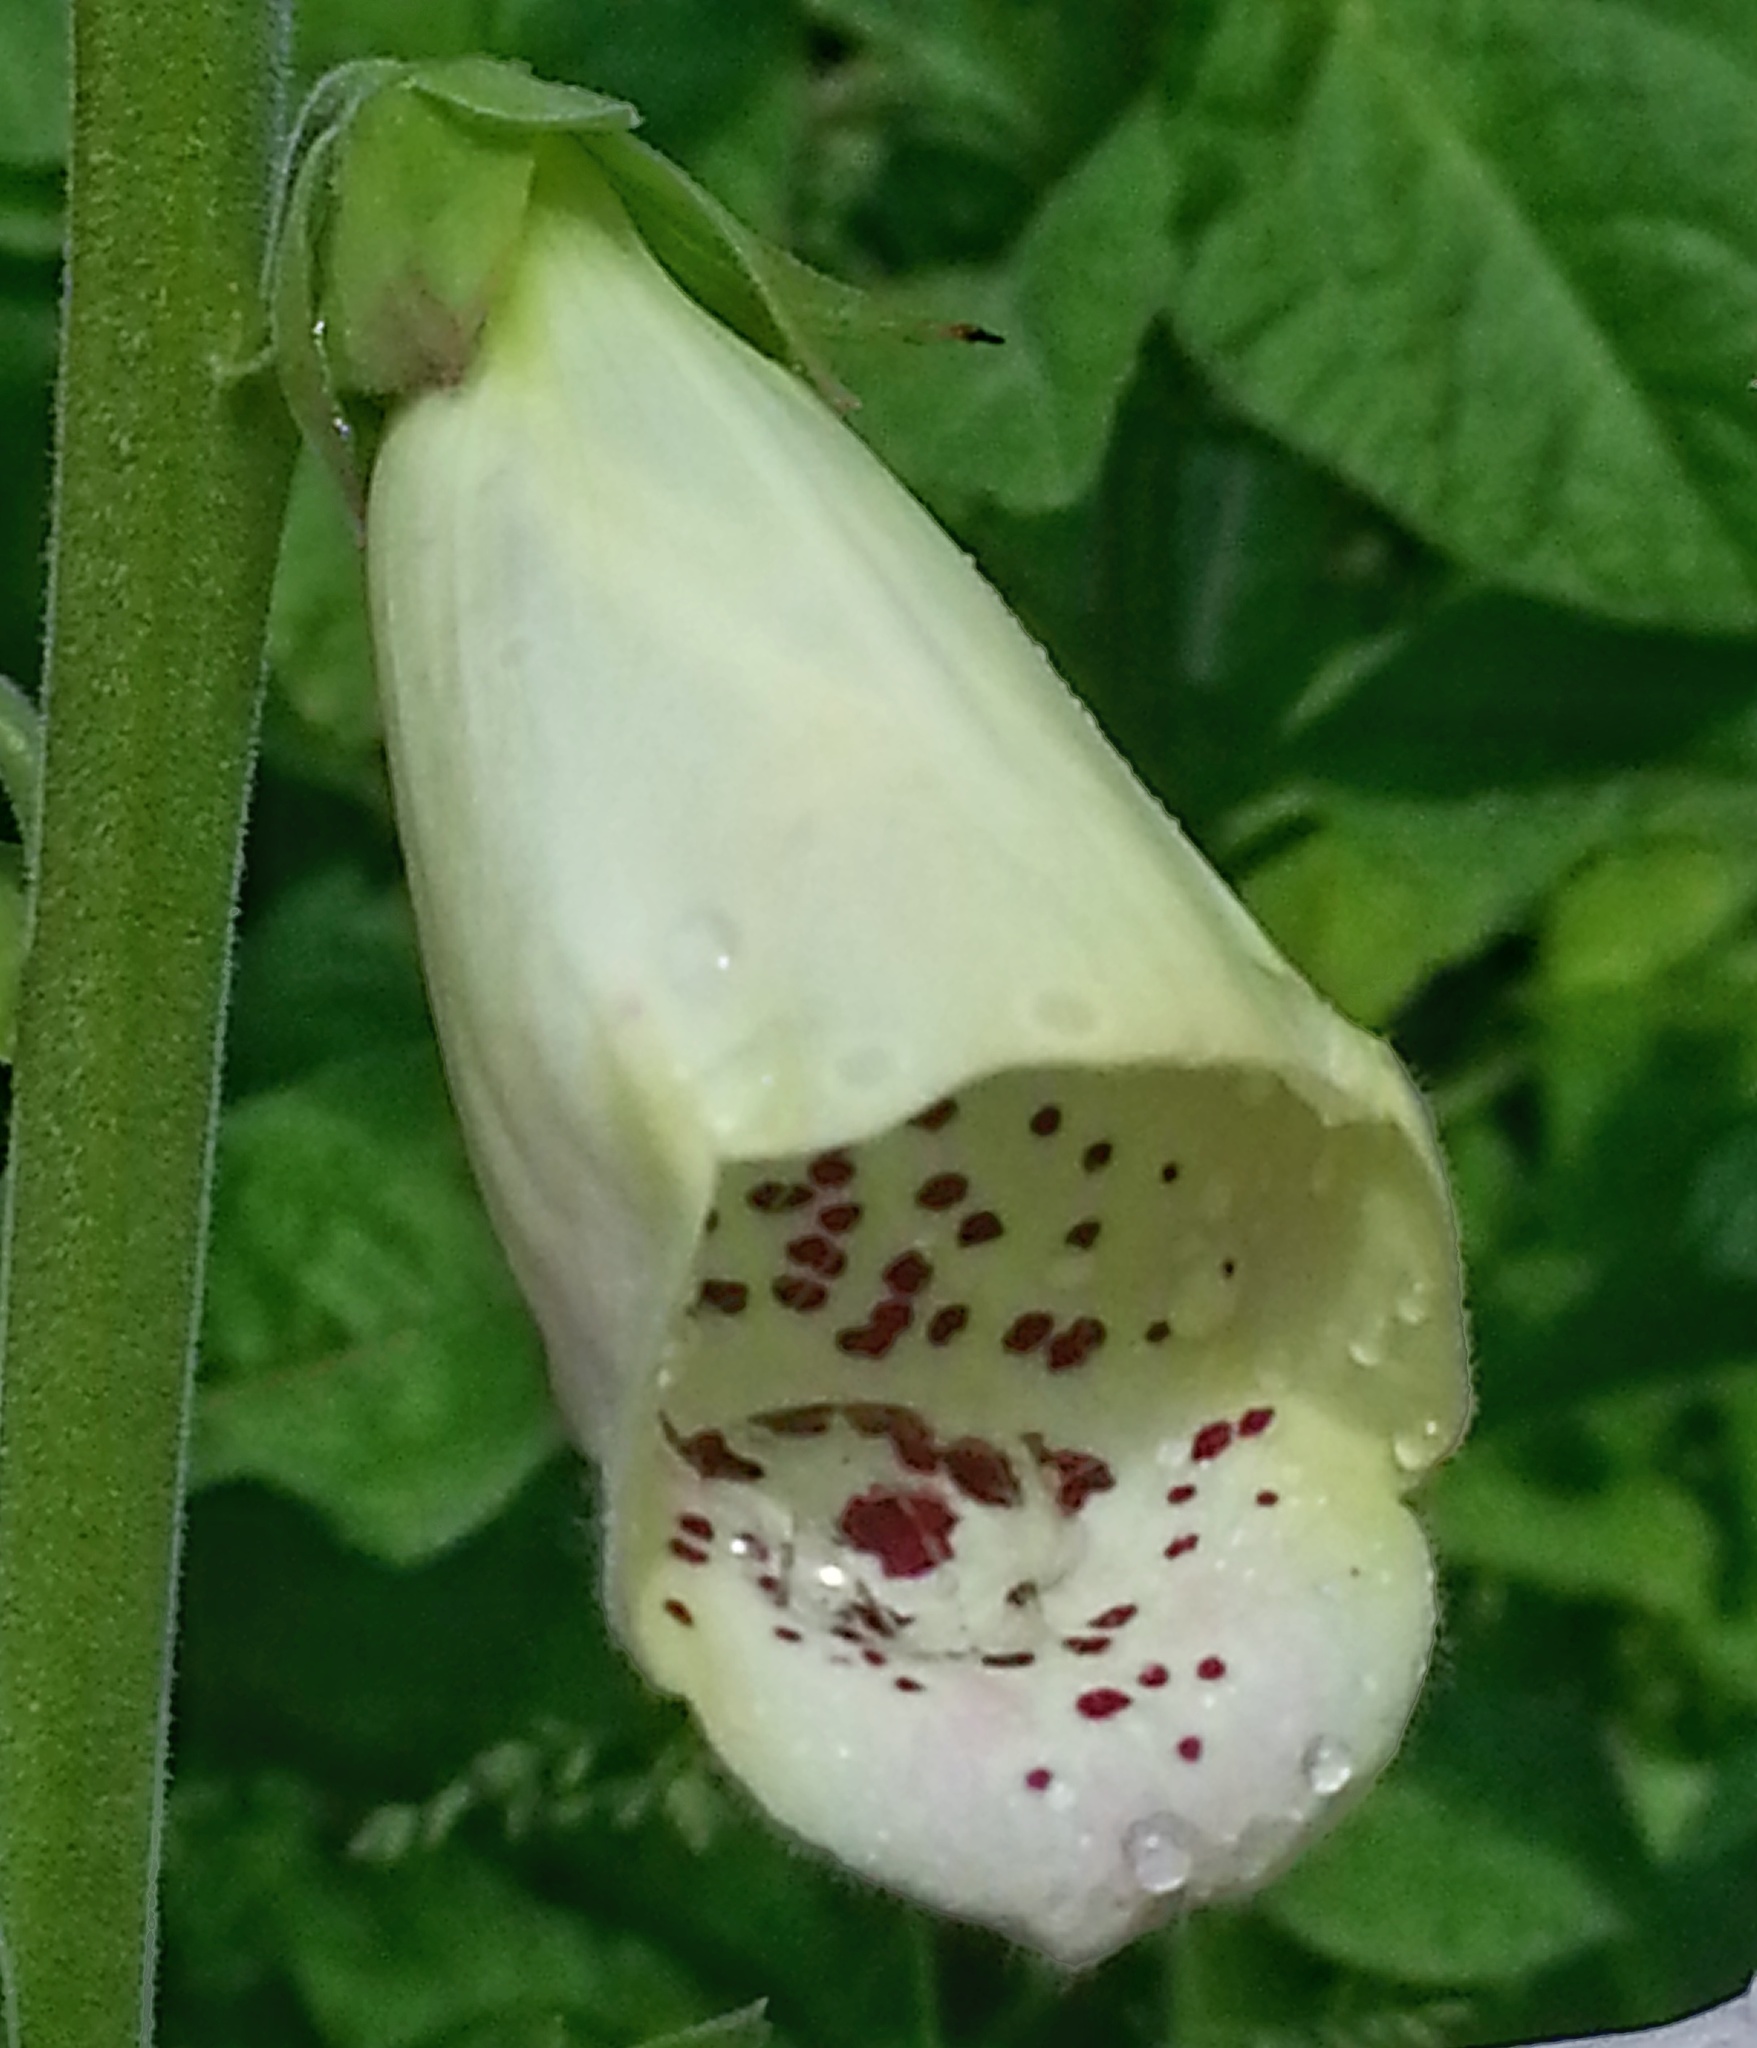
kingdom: Plantae
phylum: Tracheophyta
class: Magnoliopsida
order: Lamiales
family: Plantaginaceae
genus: Digitalis
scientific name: Digitalis purpurea
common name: Foxglove
